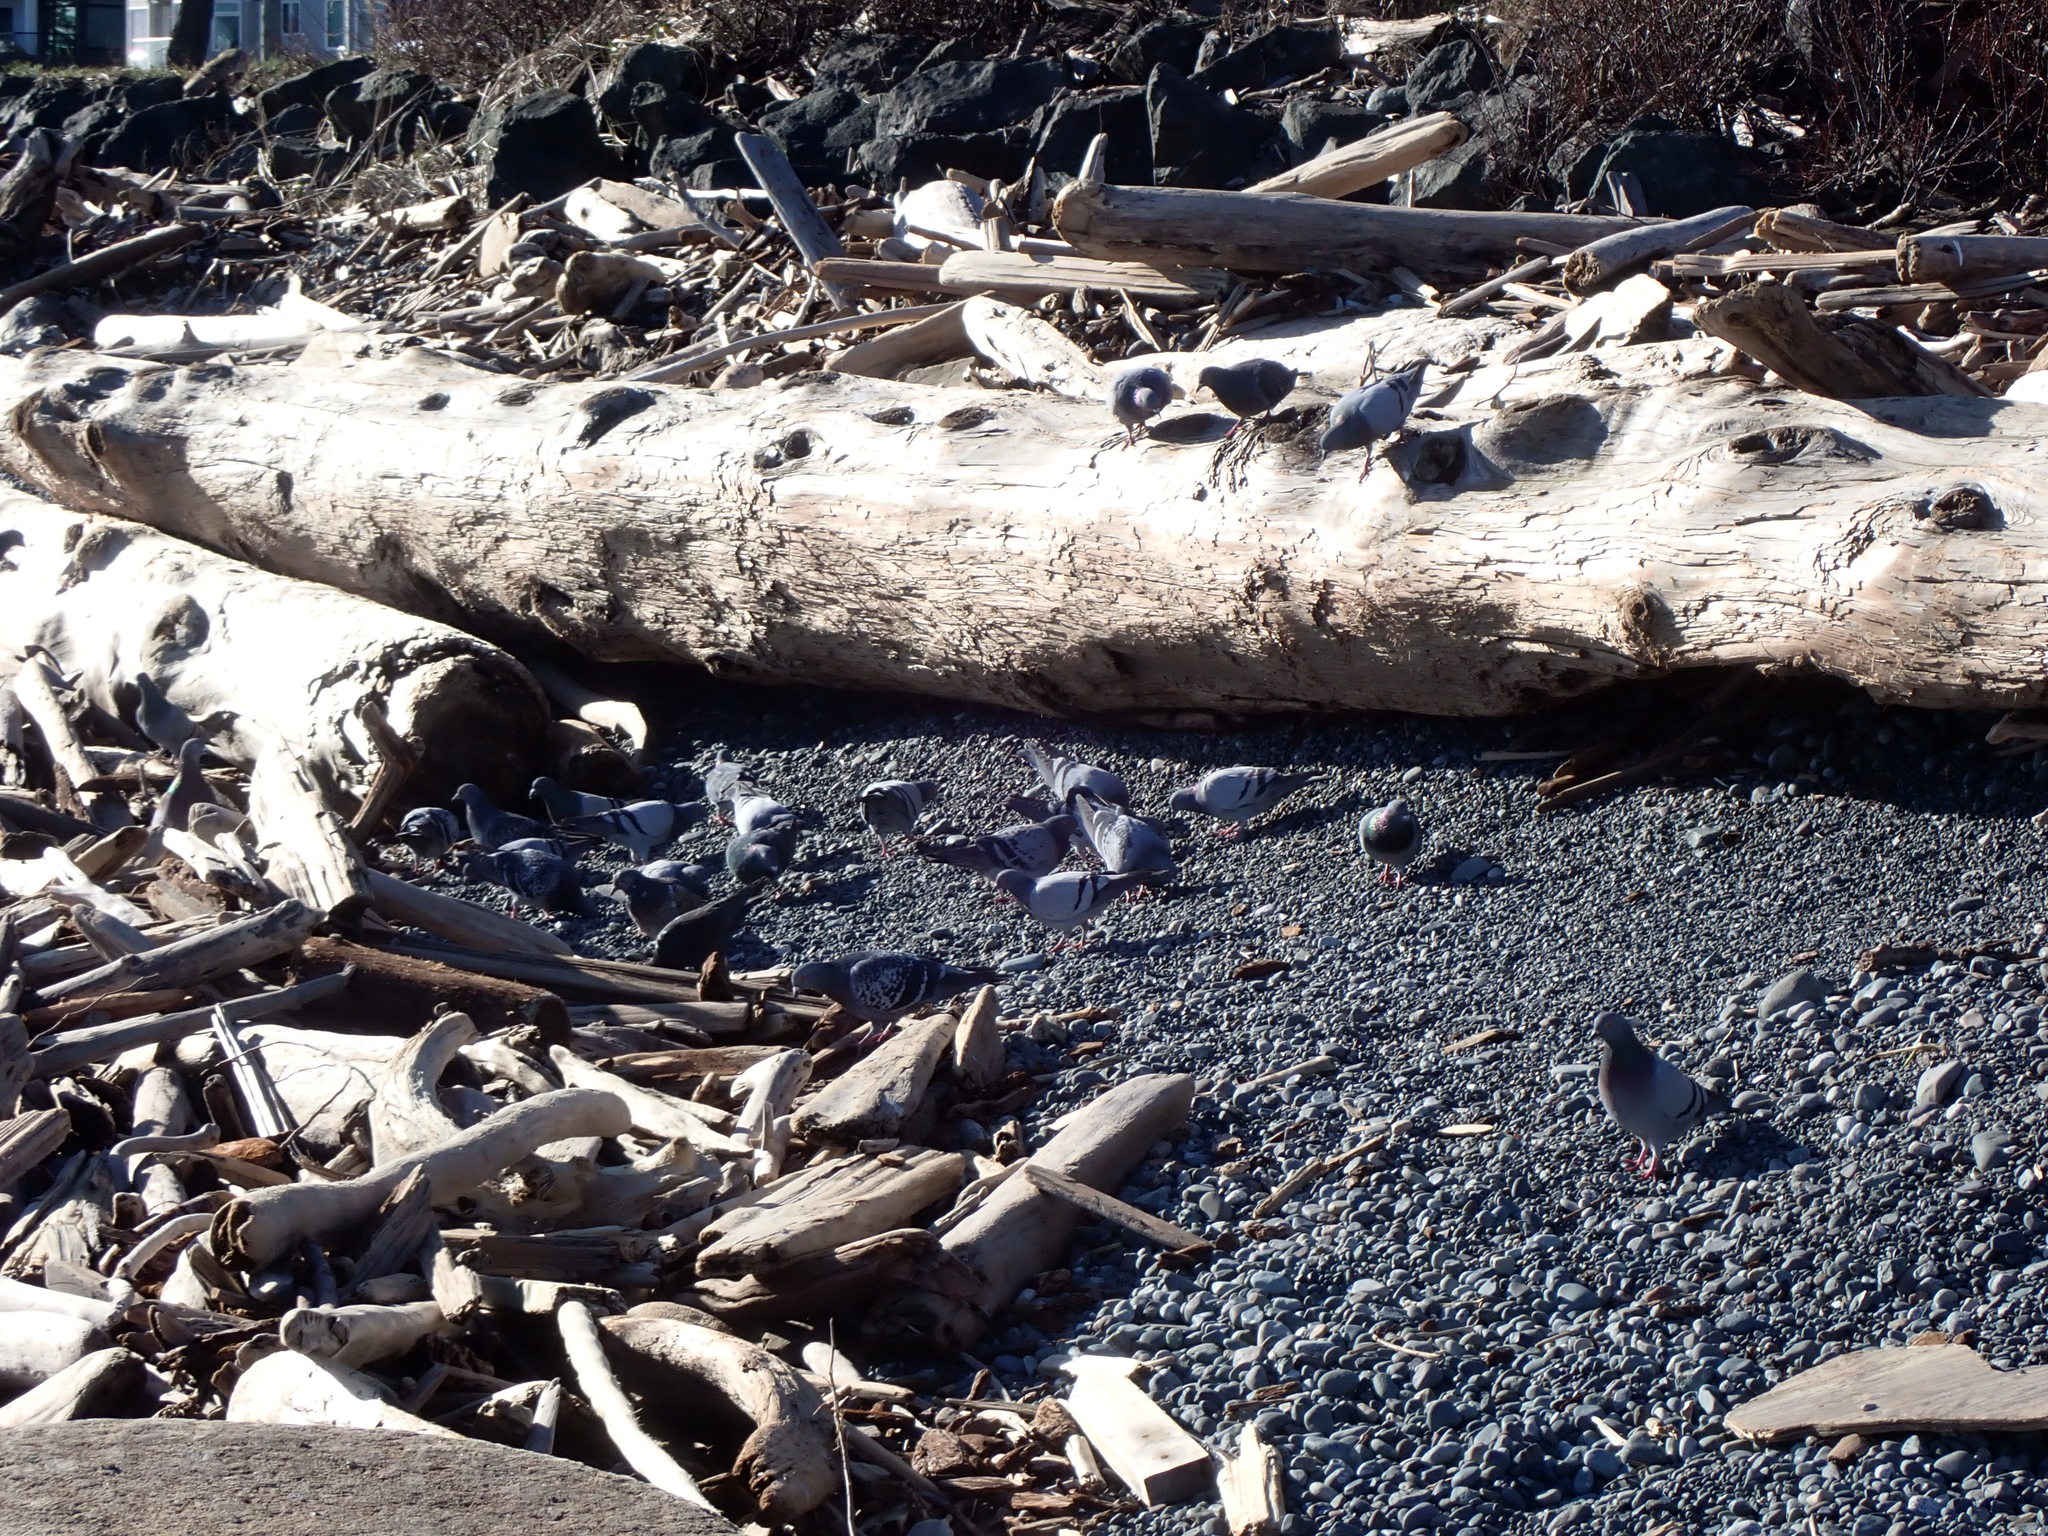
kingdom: Animalia
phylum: Chordata
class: Aves
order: Columbiformes
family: Columbidae
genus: Columba
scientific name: Columba livia
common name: Rock pigeon
